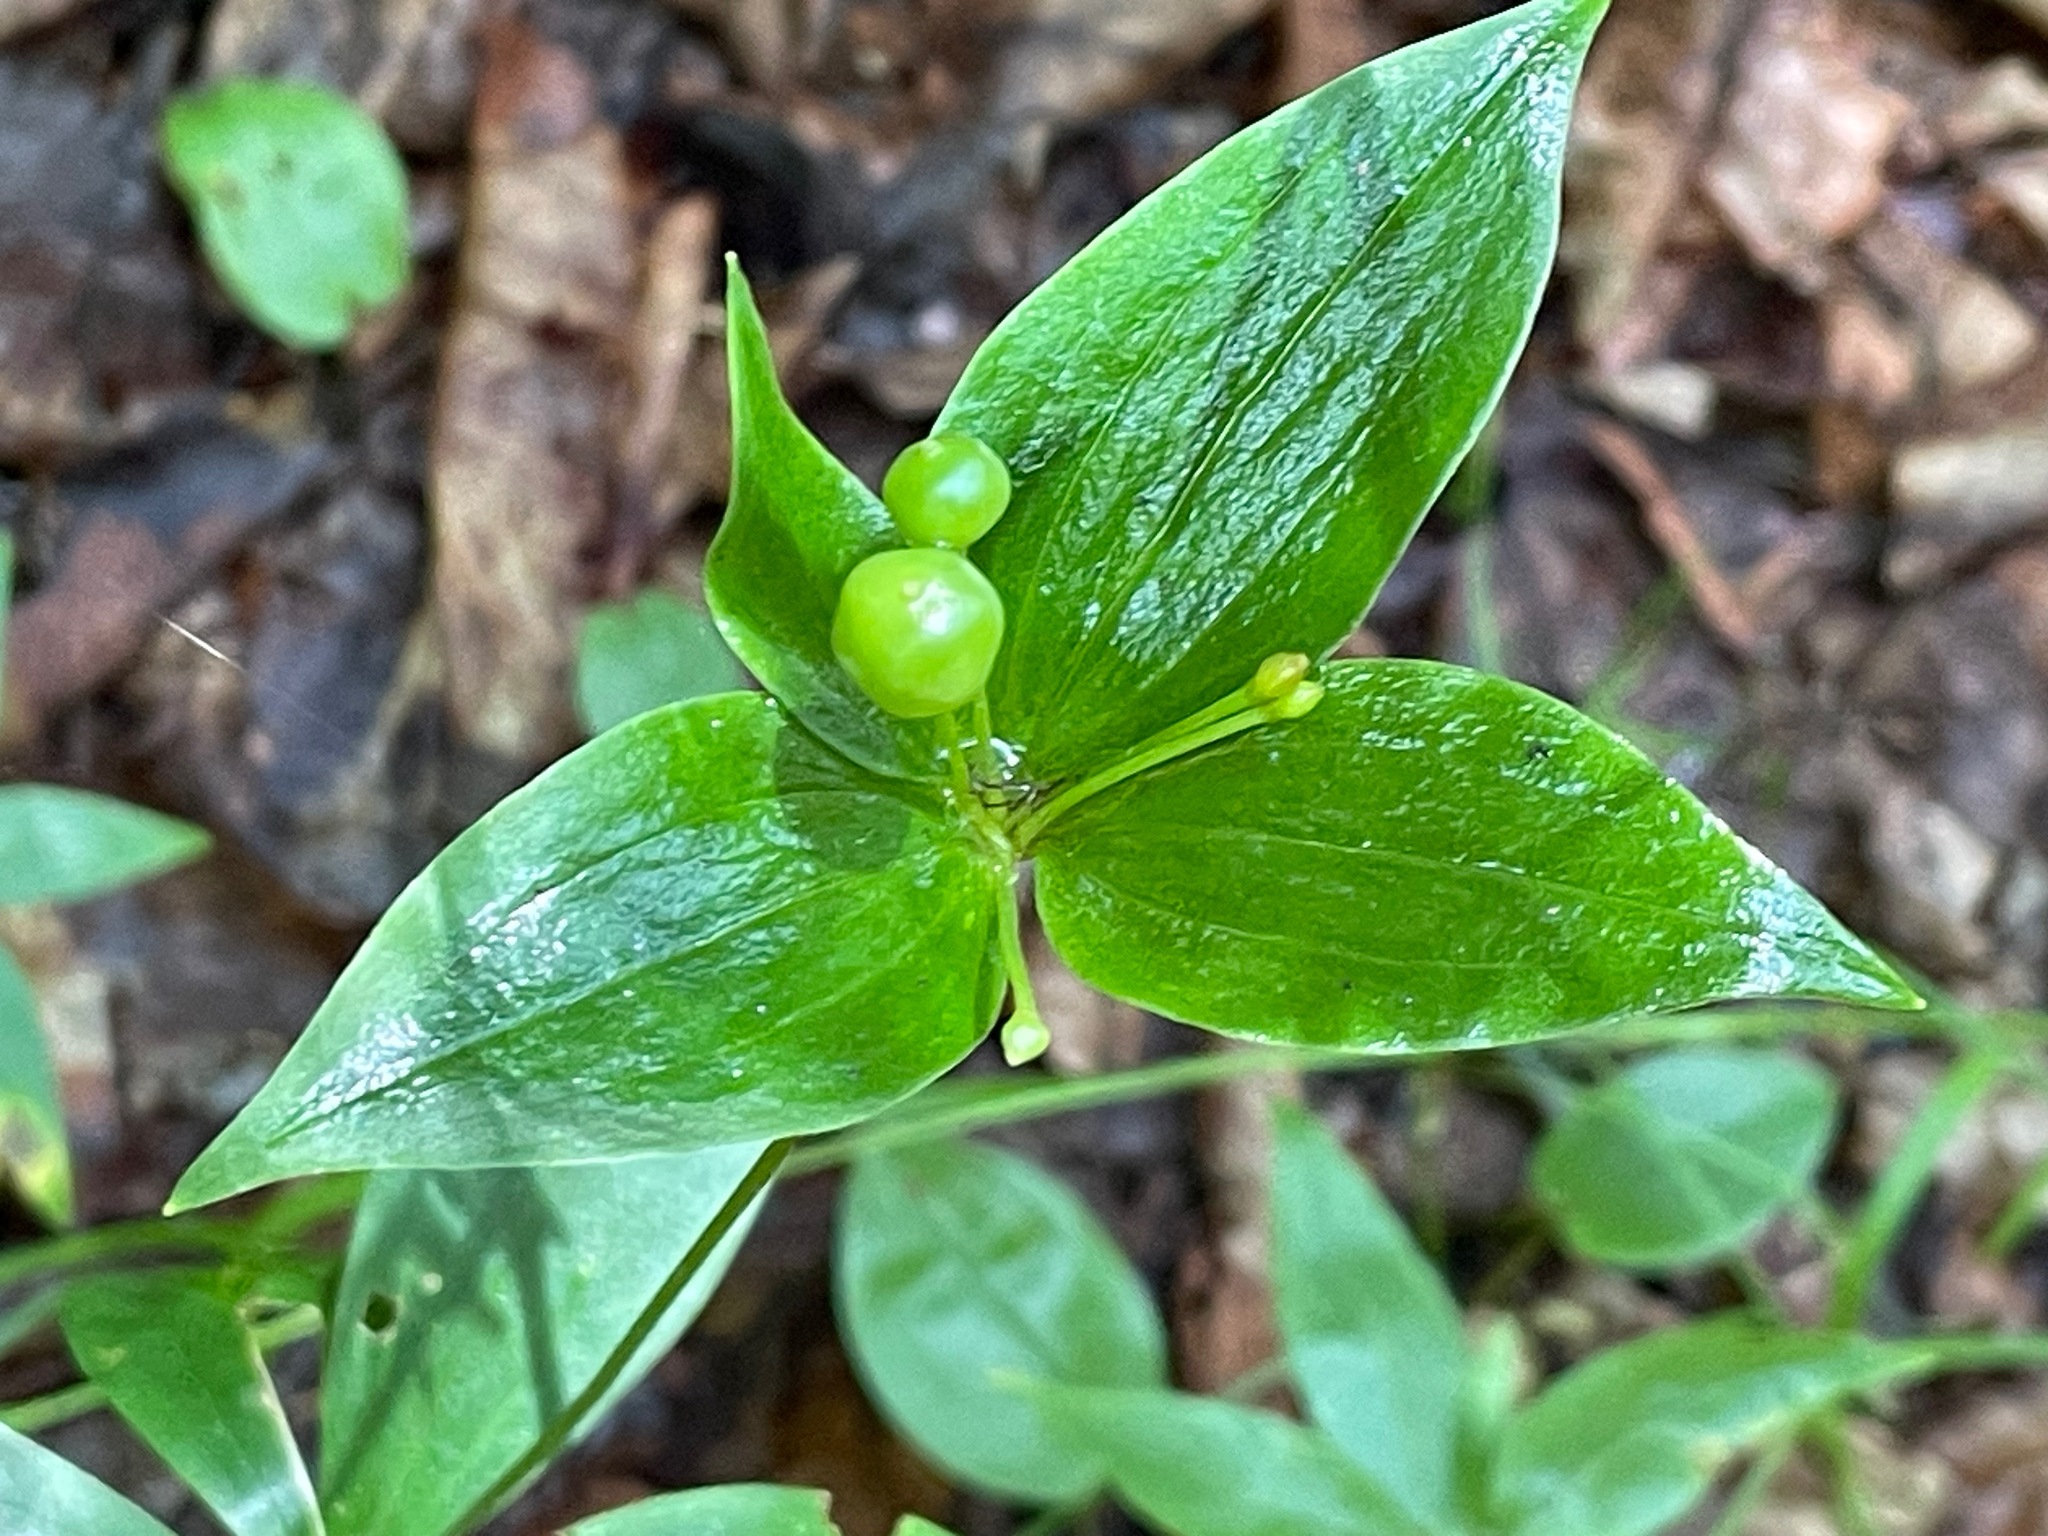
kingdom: Plantae
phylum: Tracheophyta
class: Liliopsida
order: Liliales
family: Liliaceae
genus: Medeola
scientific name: Medeola virginiana
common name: Indian cucumber-root
